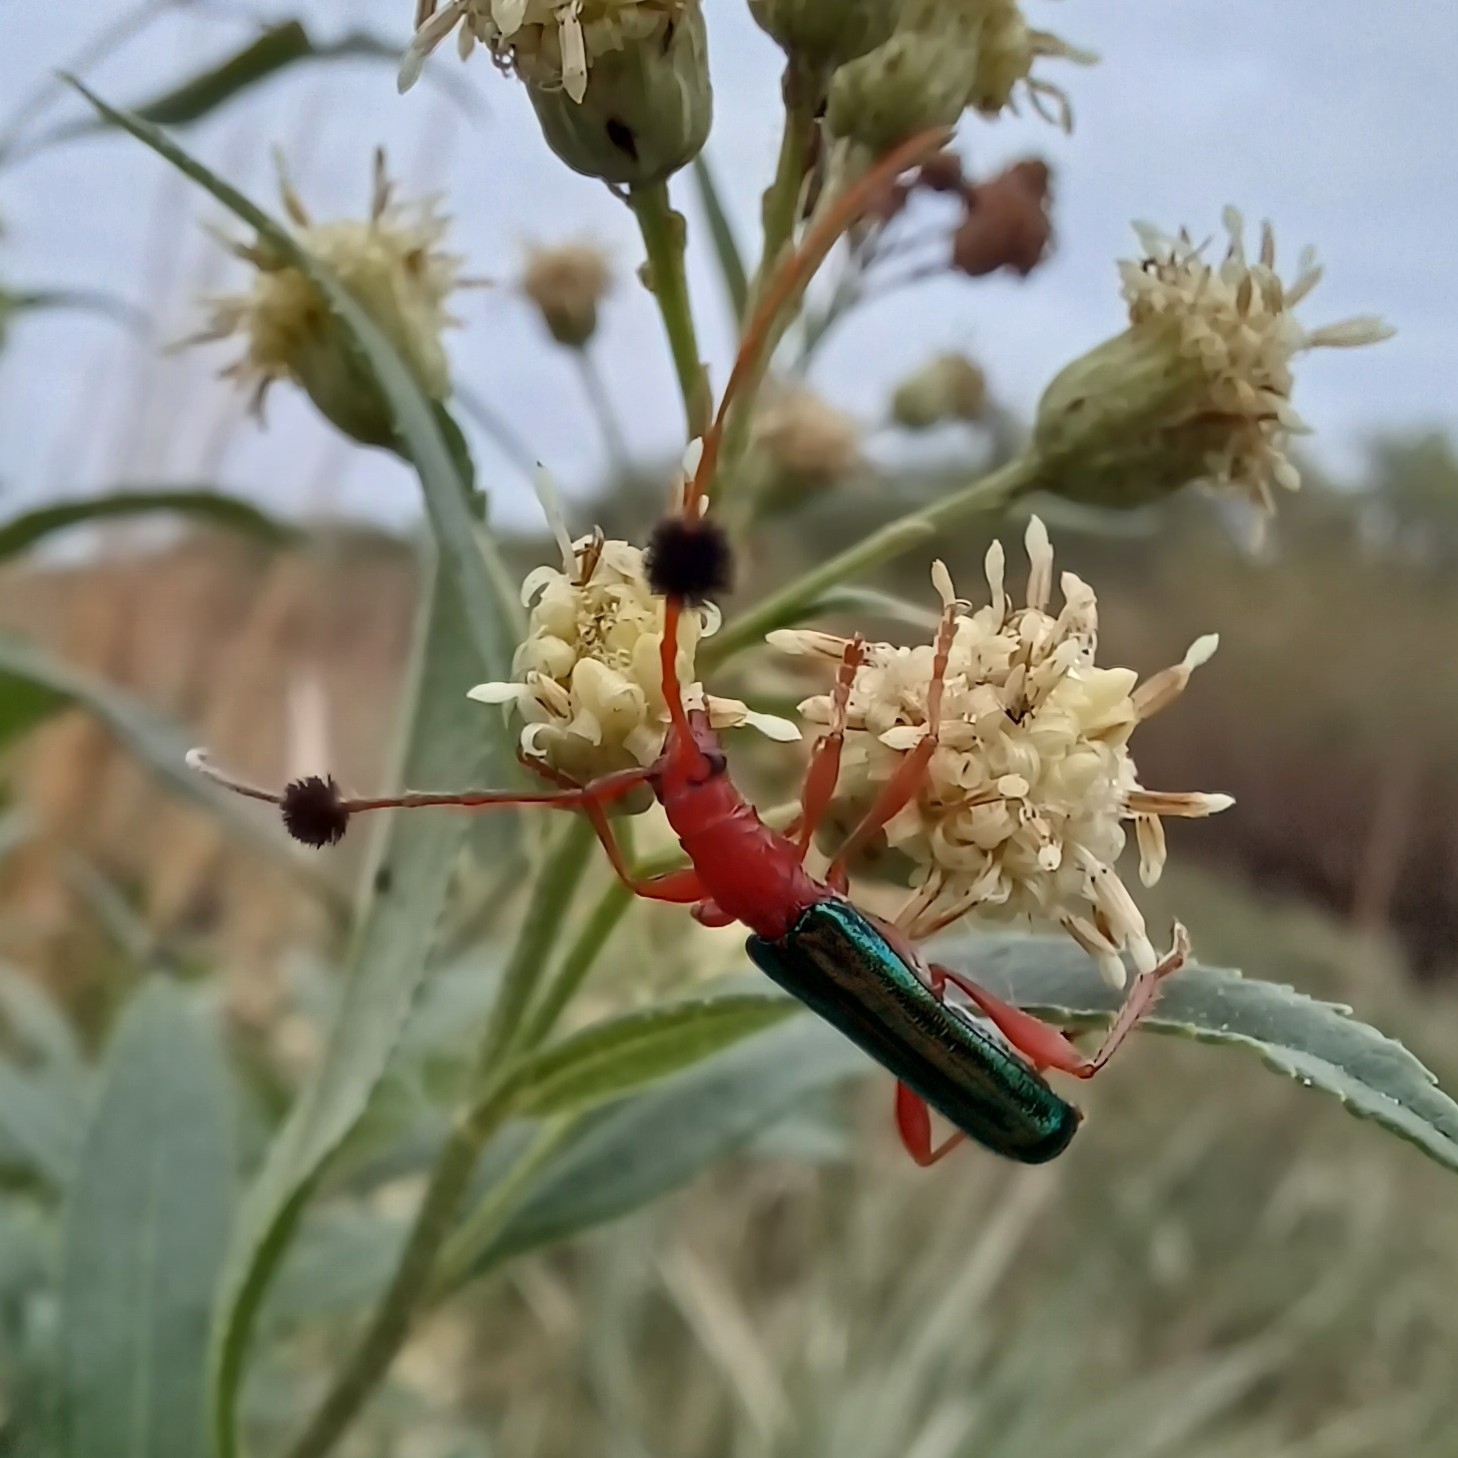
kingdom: Animalia
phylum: Arthropoda
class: Insecta
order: Coleoptera
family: Cerambycidae
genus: Paromoeocerus
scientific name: Paromoeocerus barbicornis
